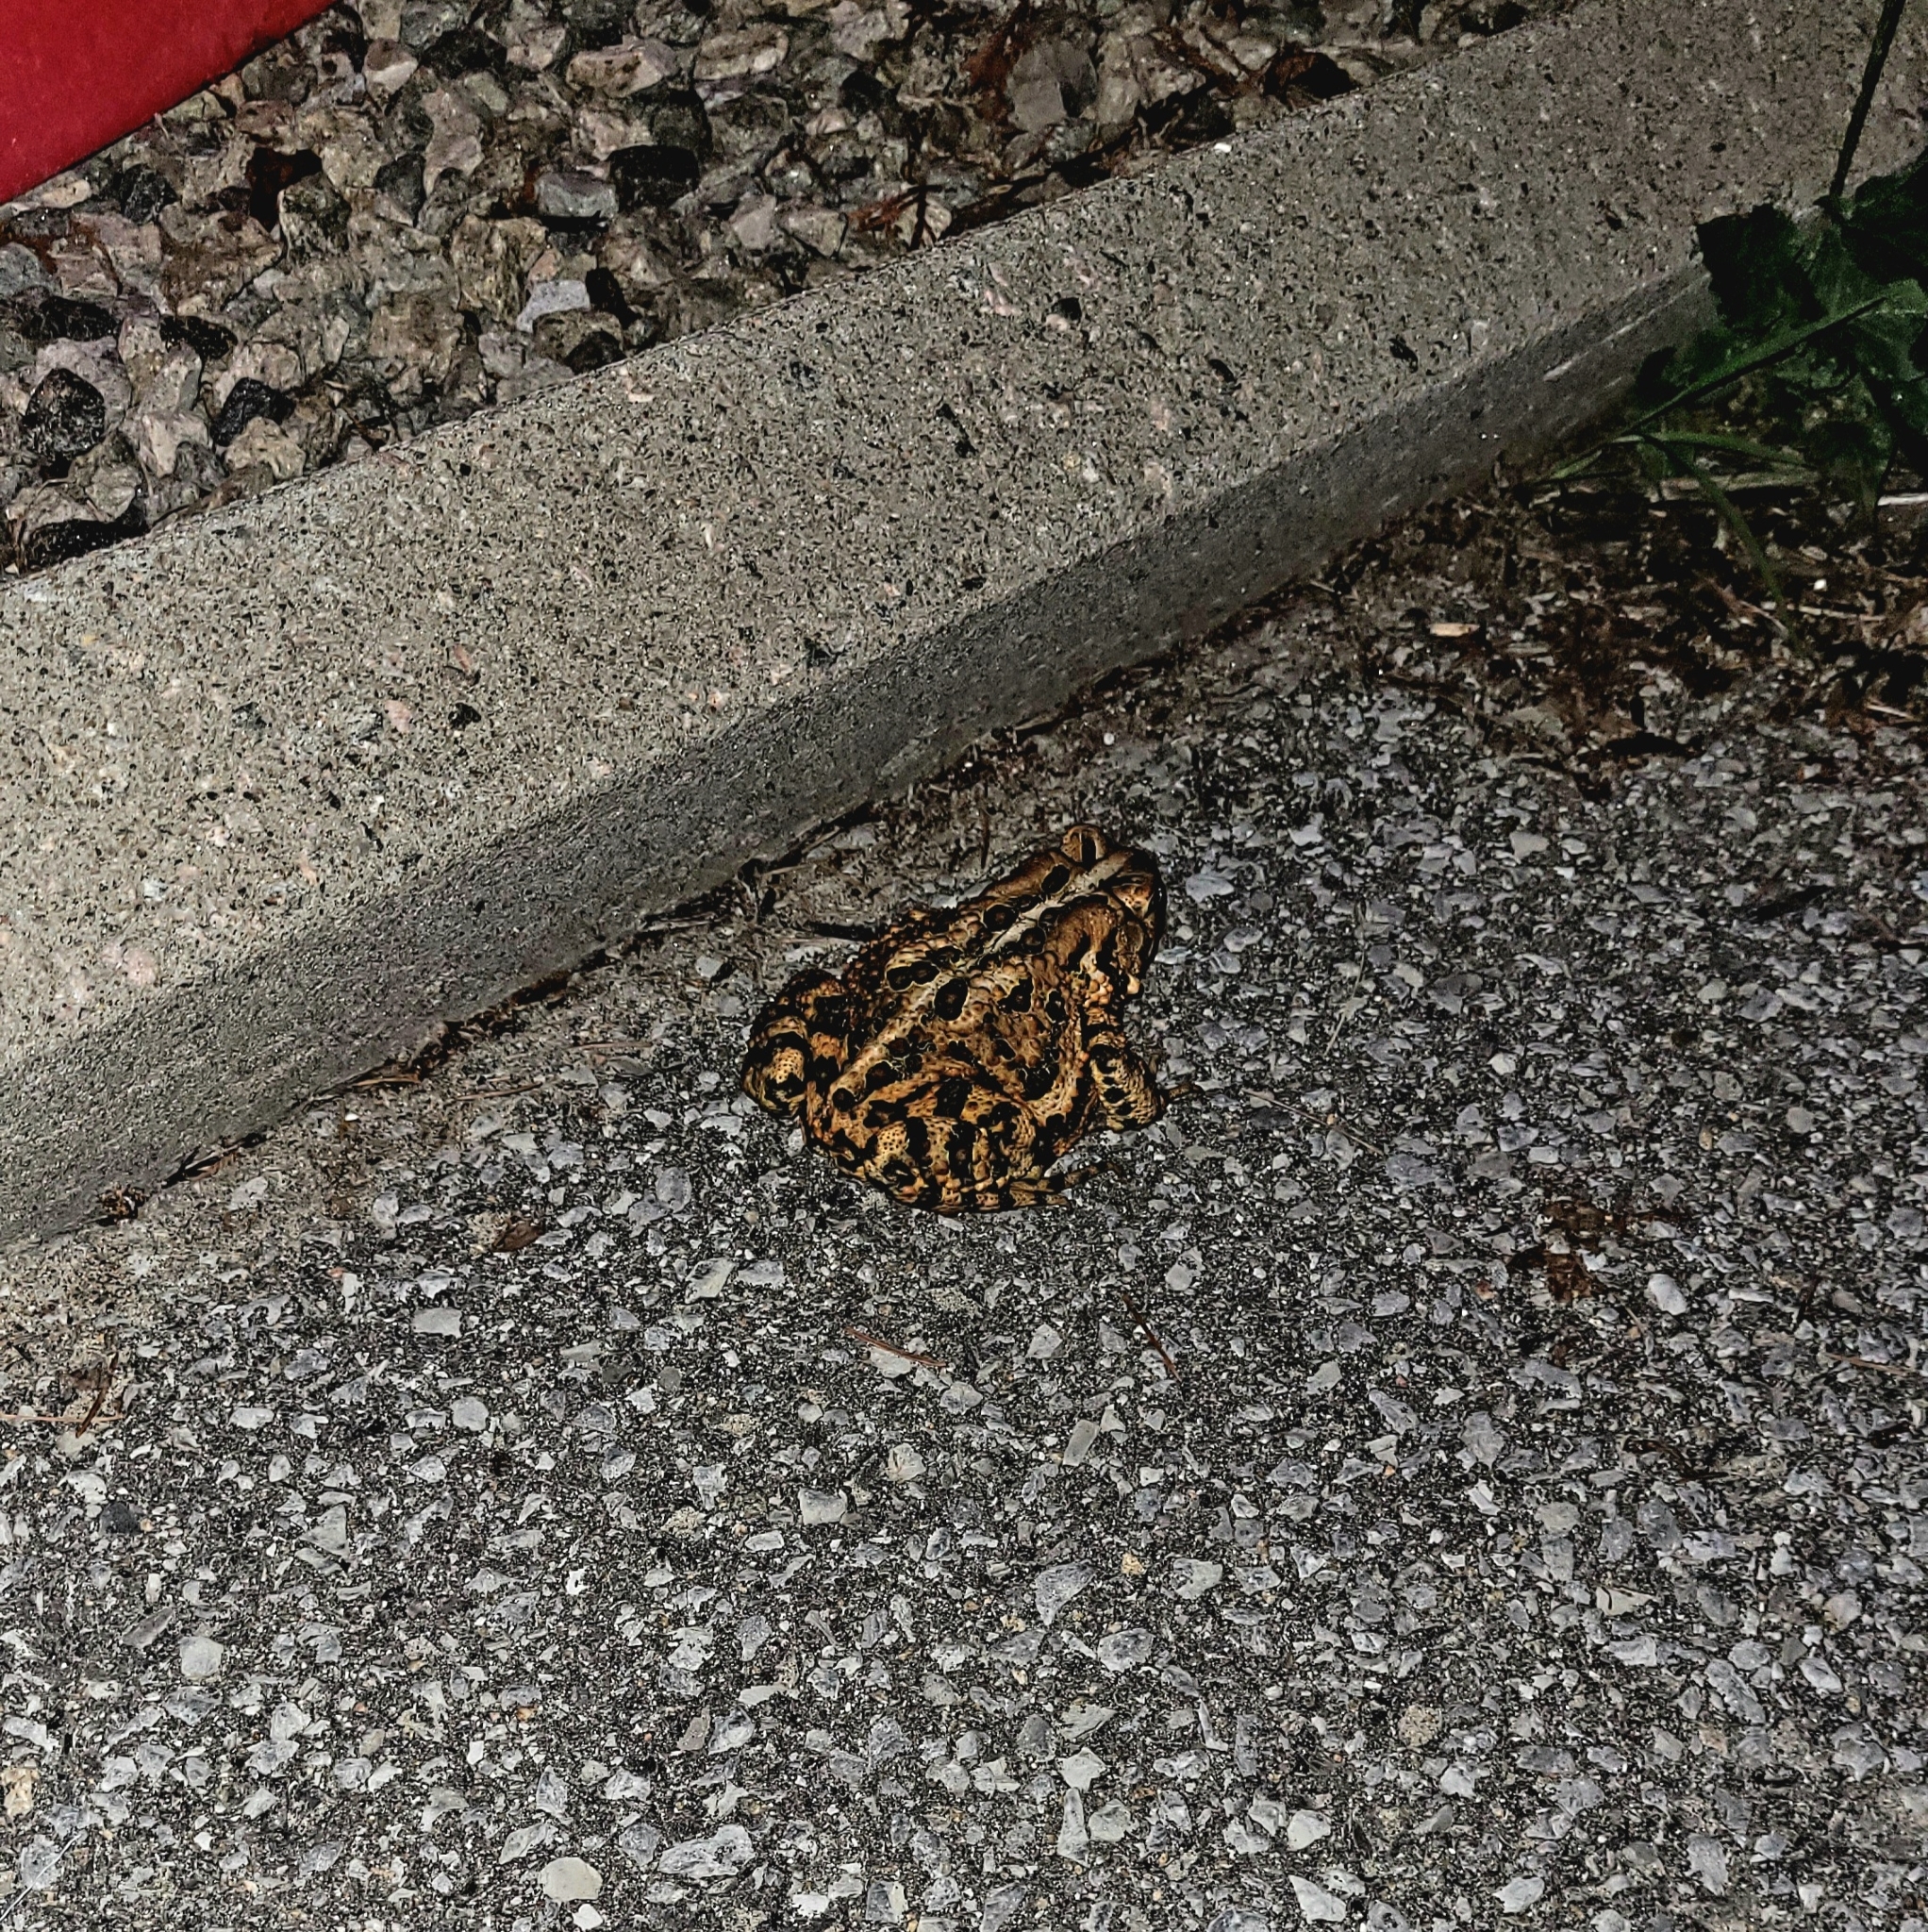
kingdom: Animalia
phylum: Chordata
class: Amphibia
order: Anura
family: Bufonidae
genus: Anaxyrus
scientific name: Anaxyrus americanus
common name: American toad
